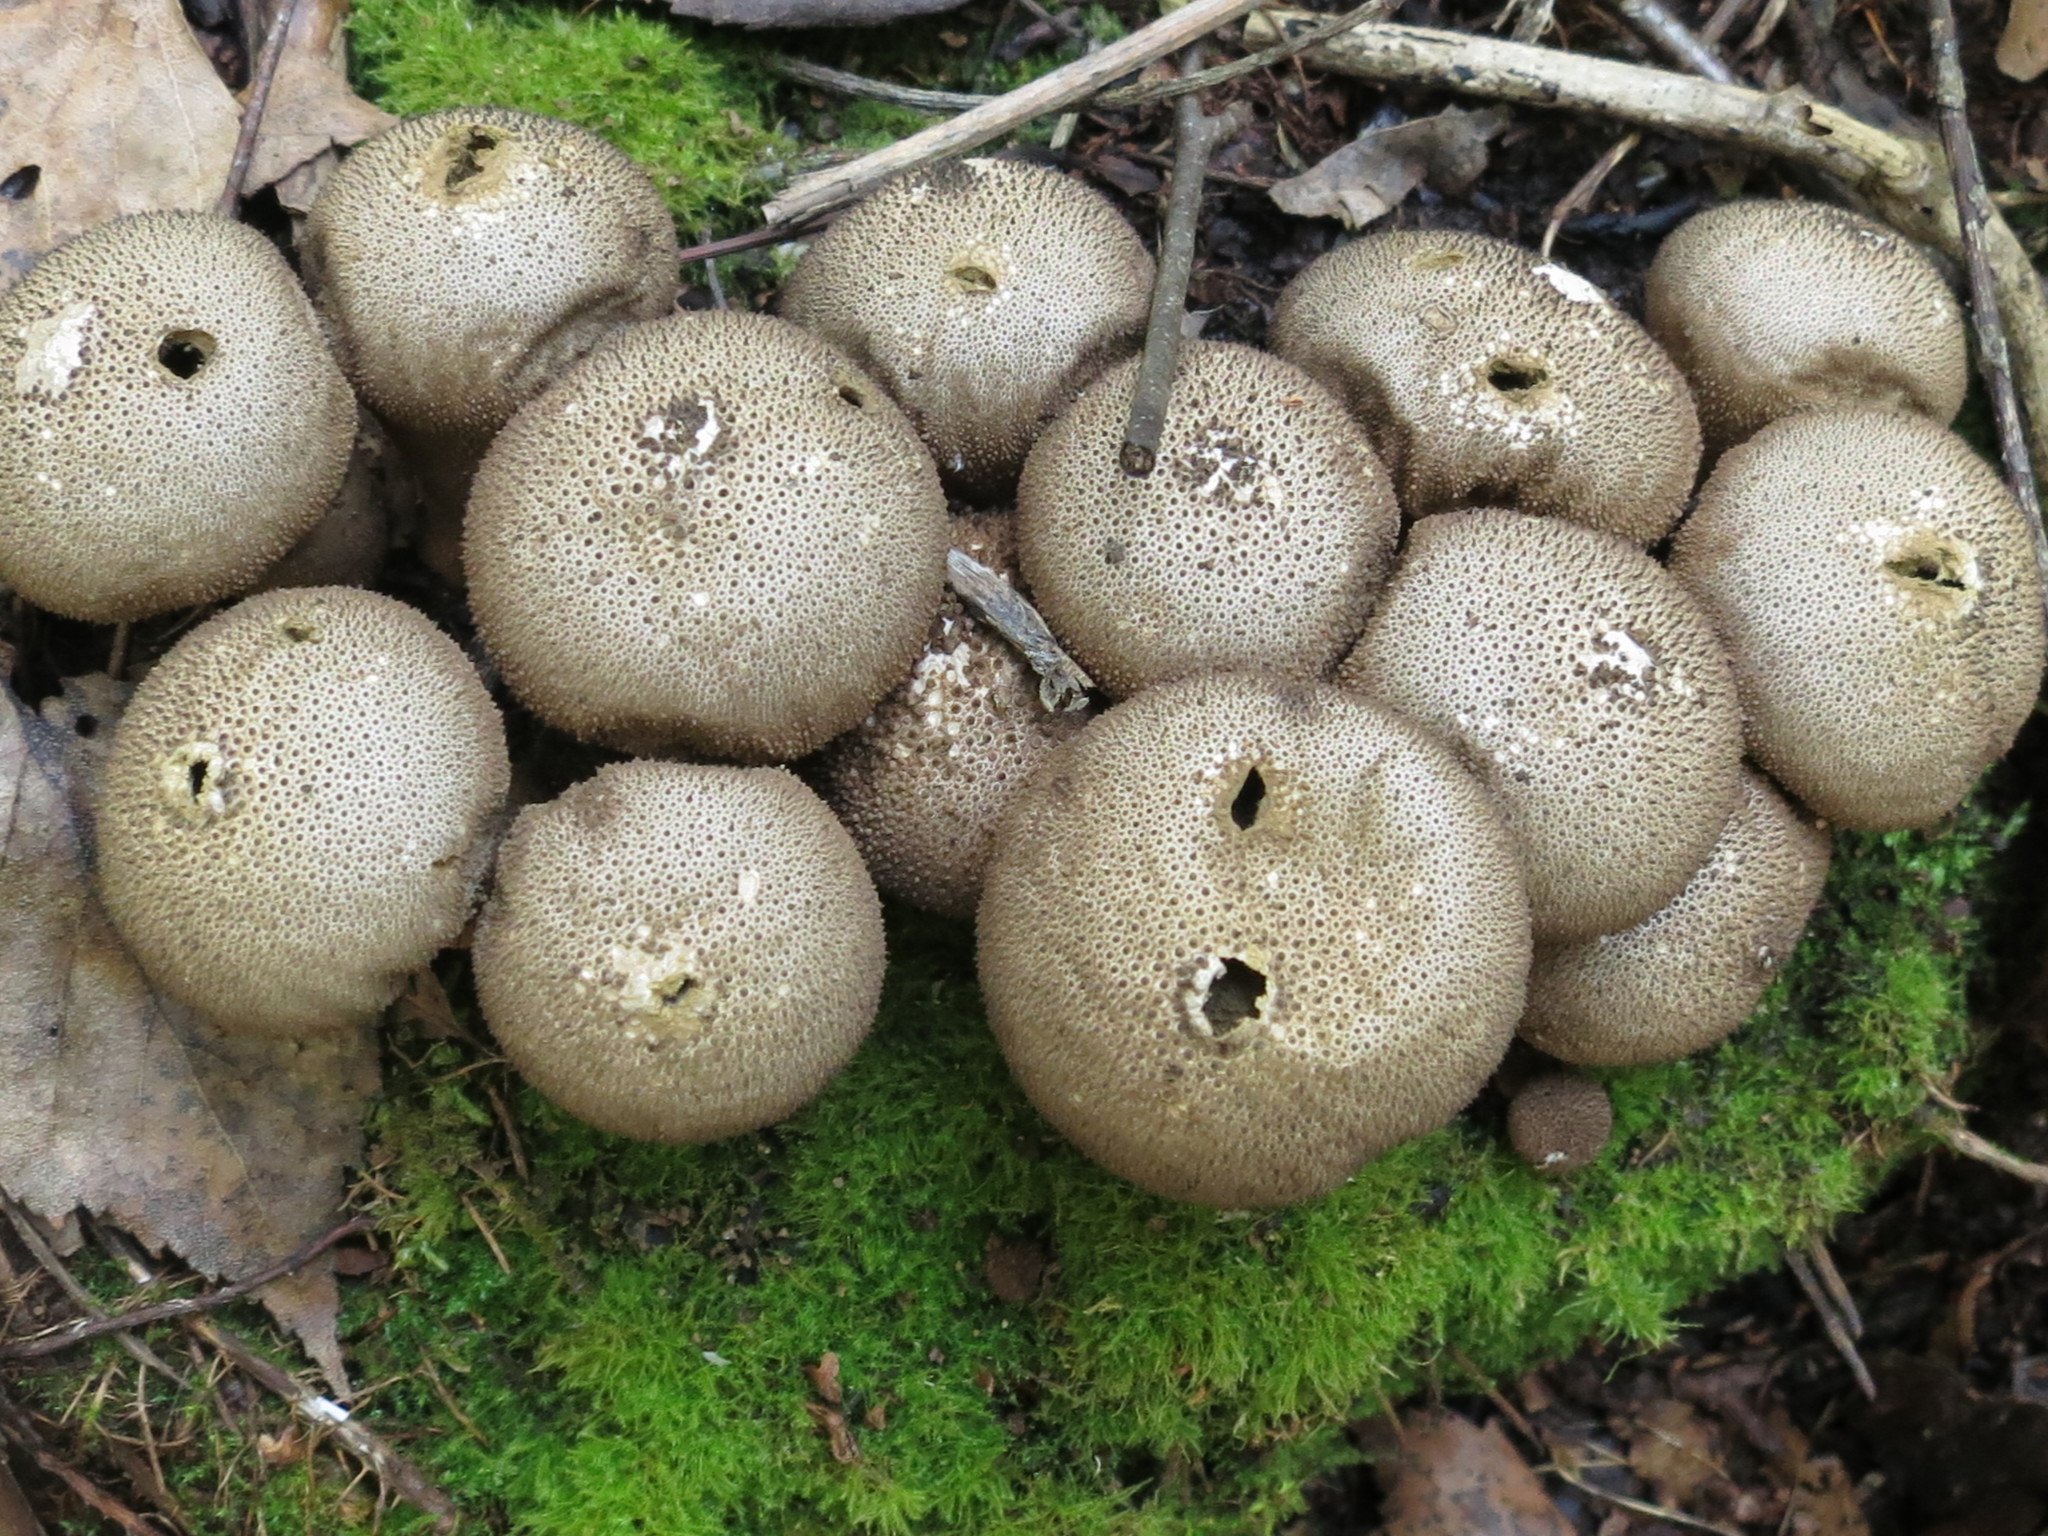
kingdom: Fungi
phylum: Basidiomycota
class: Agaricomycetes
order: Agaricales
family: Lycoperdaceae
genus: Apioperdon
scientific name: Apioperdon pyriforme
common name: Pear-shaped puffball
